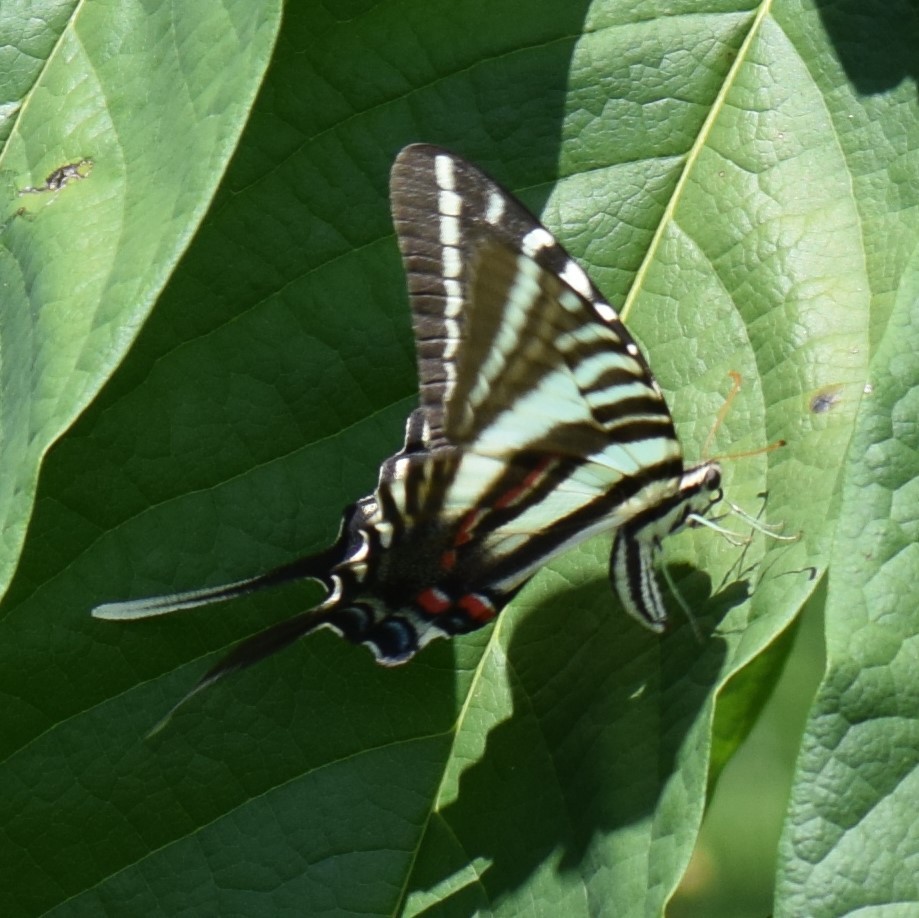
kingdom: Animalia
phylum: Arthropoda
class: Insecta
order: Lepidoptera
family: Papilionidae
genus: Protographium
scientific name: Protographium marcellus
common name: Zebra swallowtail
